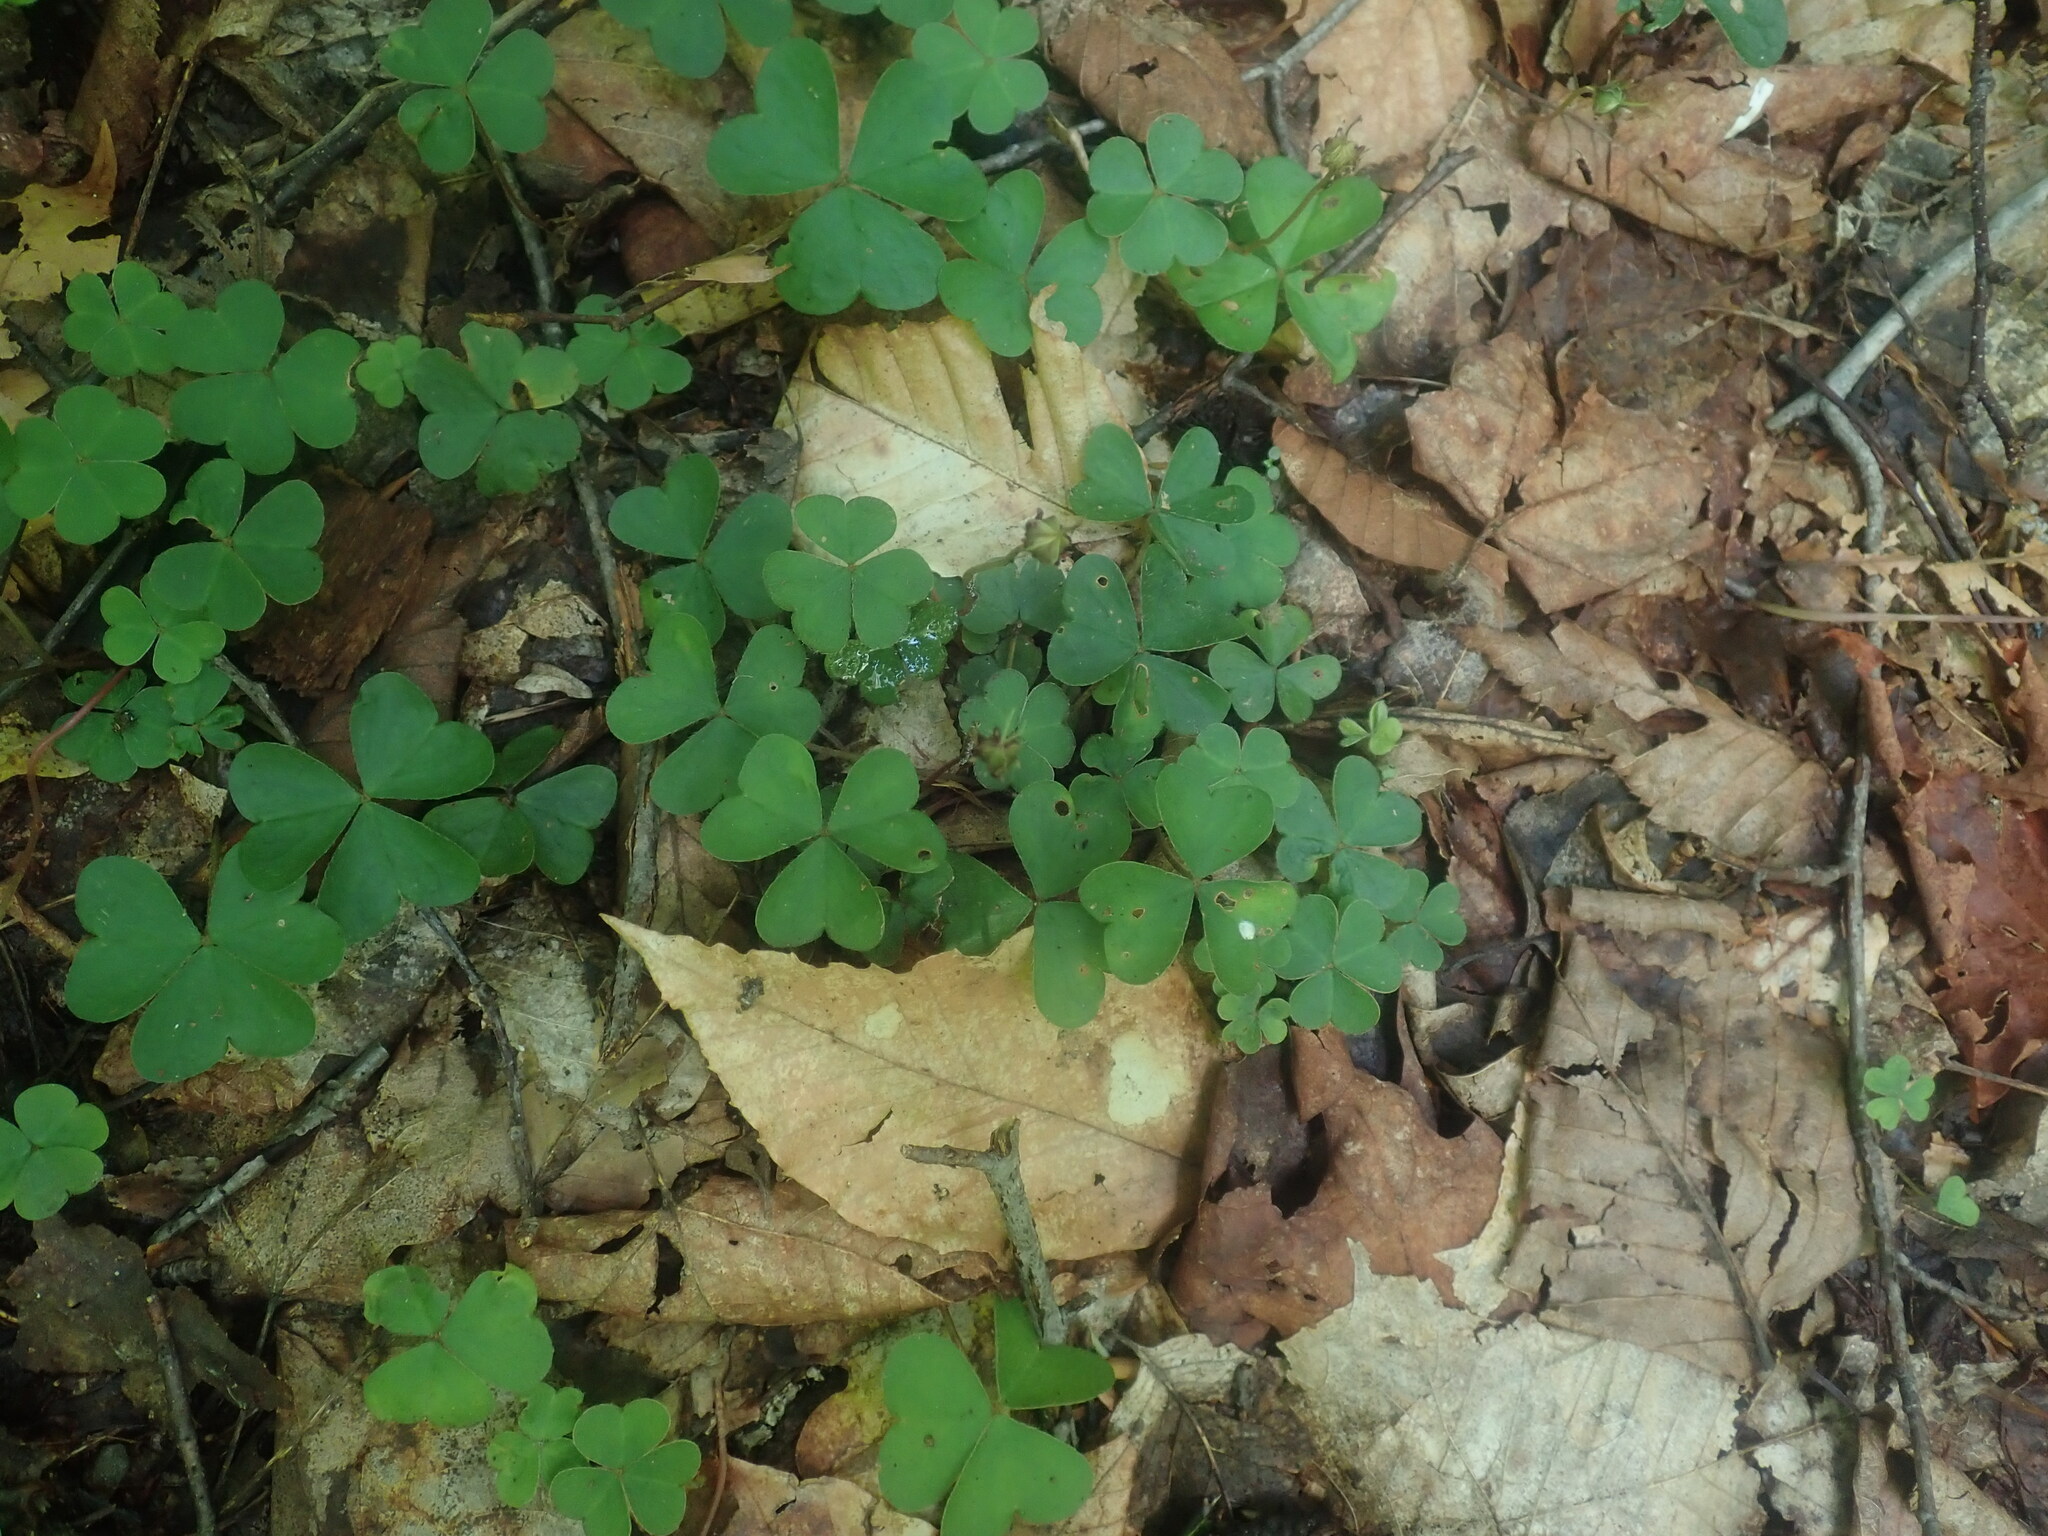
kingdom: Plantae
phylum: Tracheophyta
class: Magnoliopsida
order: Oxalidales
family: Oxalidaceae
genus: Oxalis
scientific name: Oxalis montana
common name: American wood-sorrel
